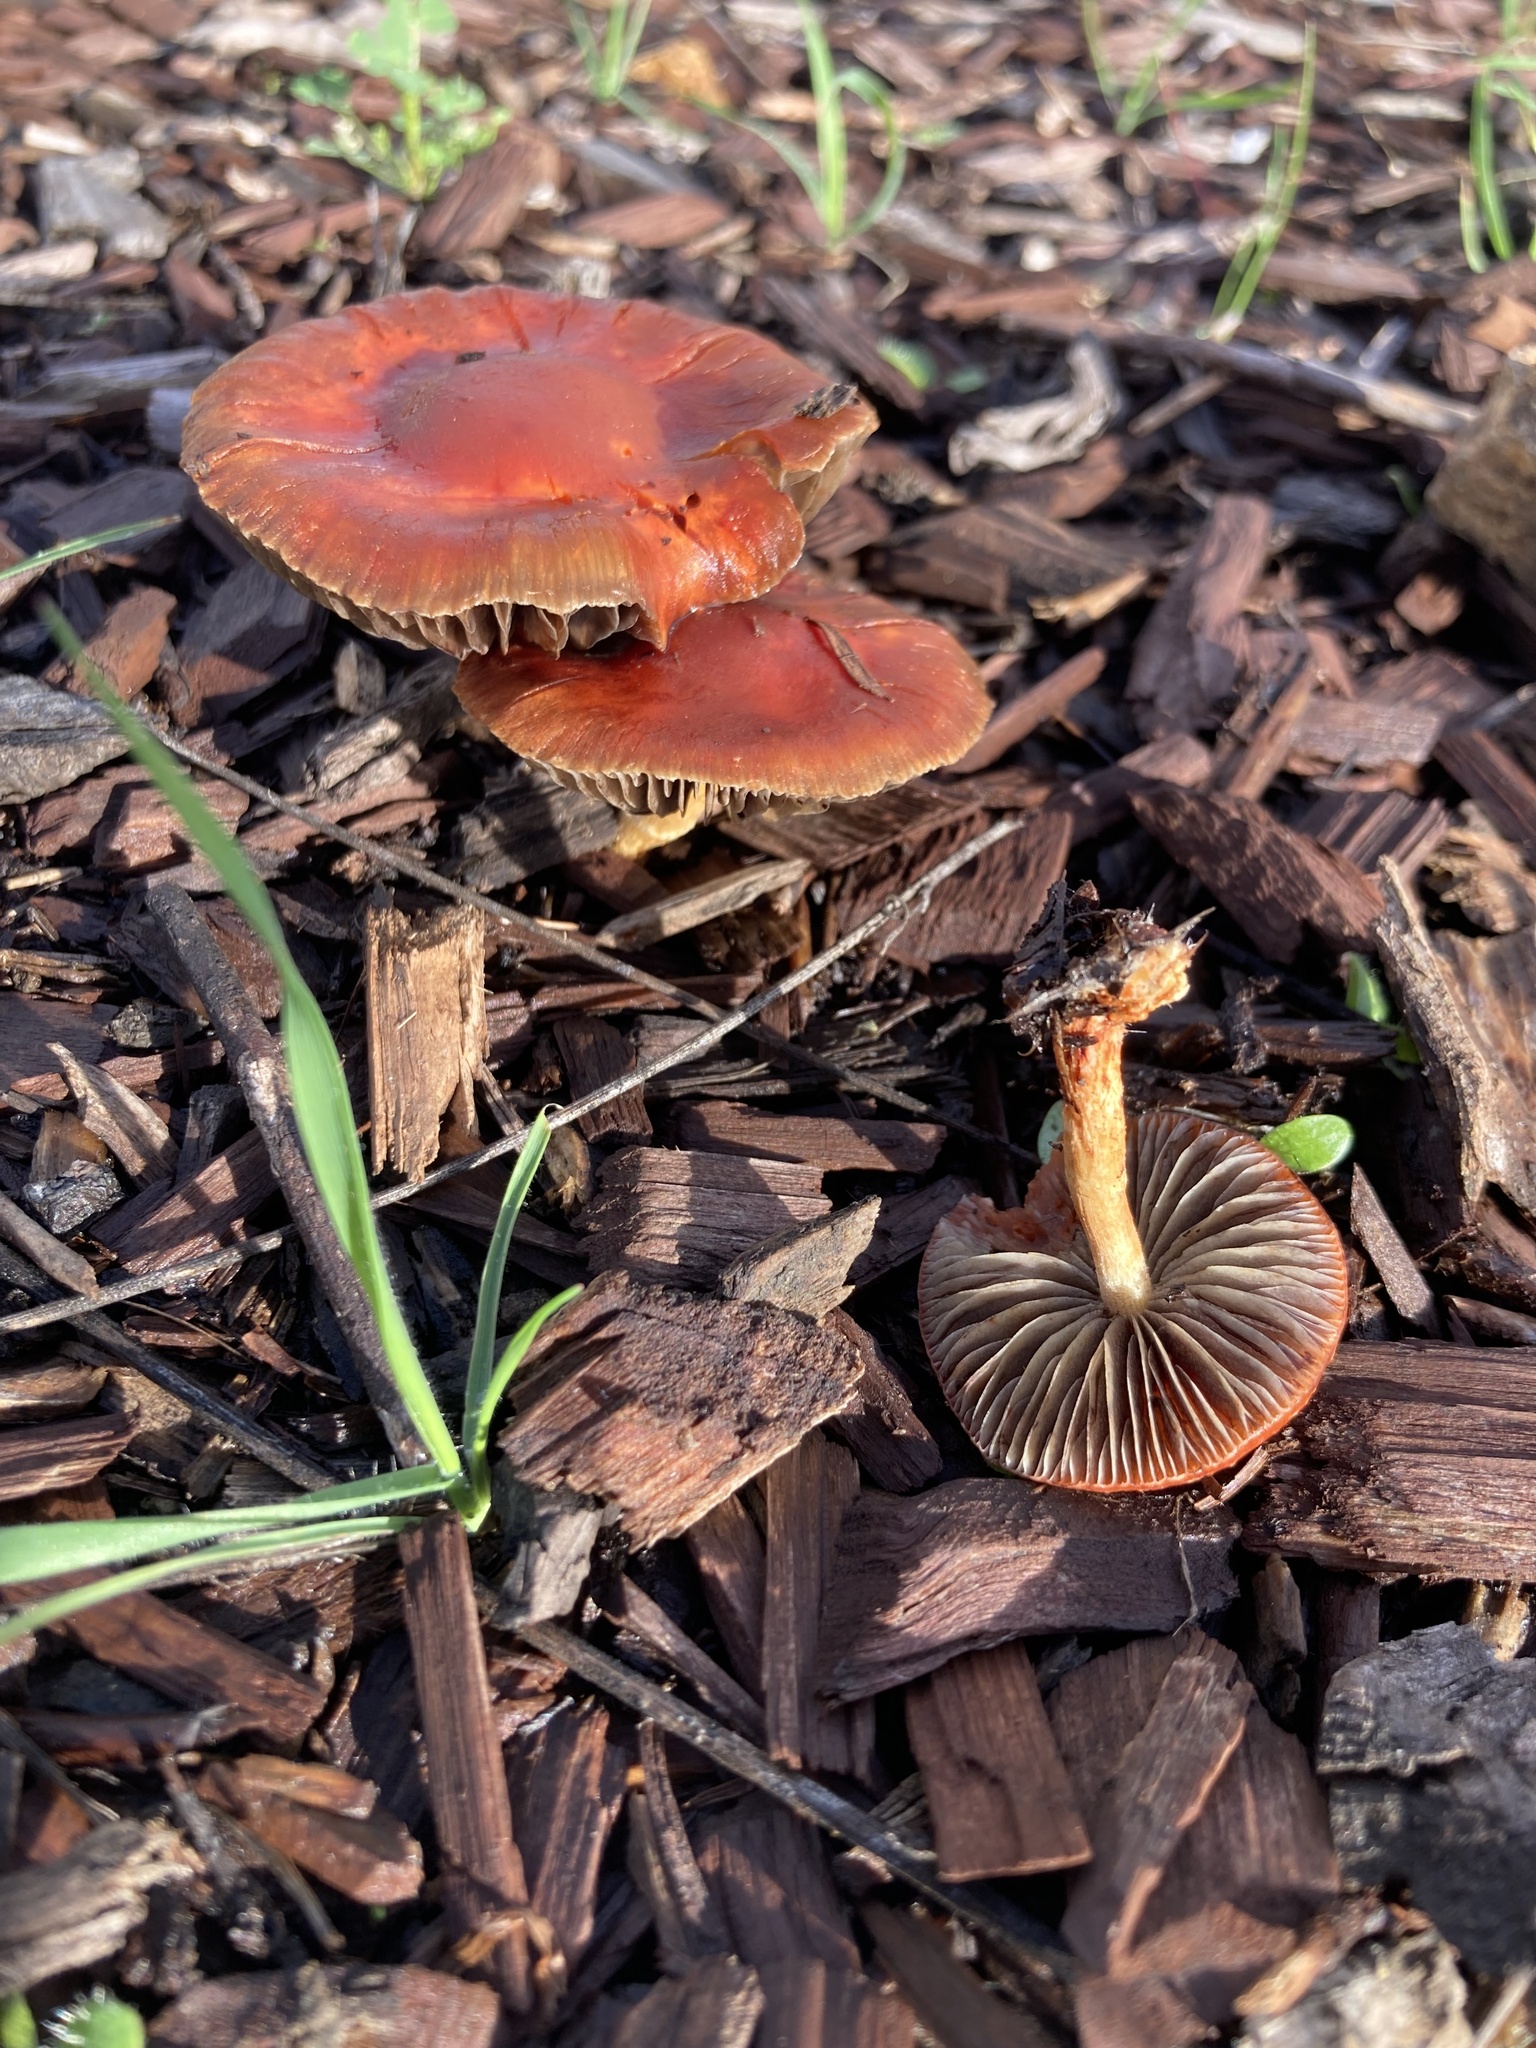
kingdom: Fungi
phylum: Basidiomycota
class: Agaricomycetes
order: Agaricales
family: Strophariaceae
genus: Leratiomyces
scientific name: Leratiomyces ceres
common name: Redlead roundhead
